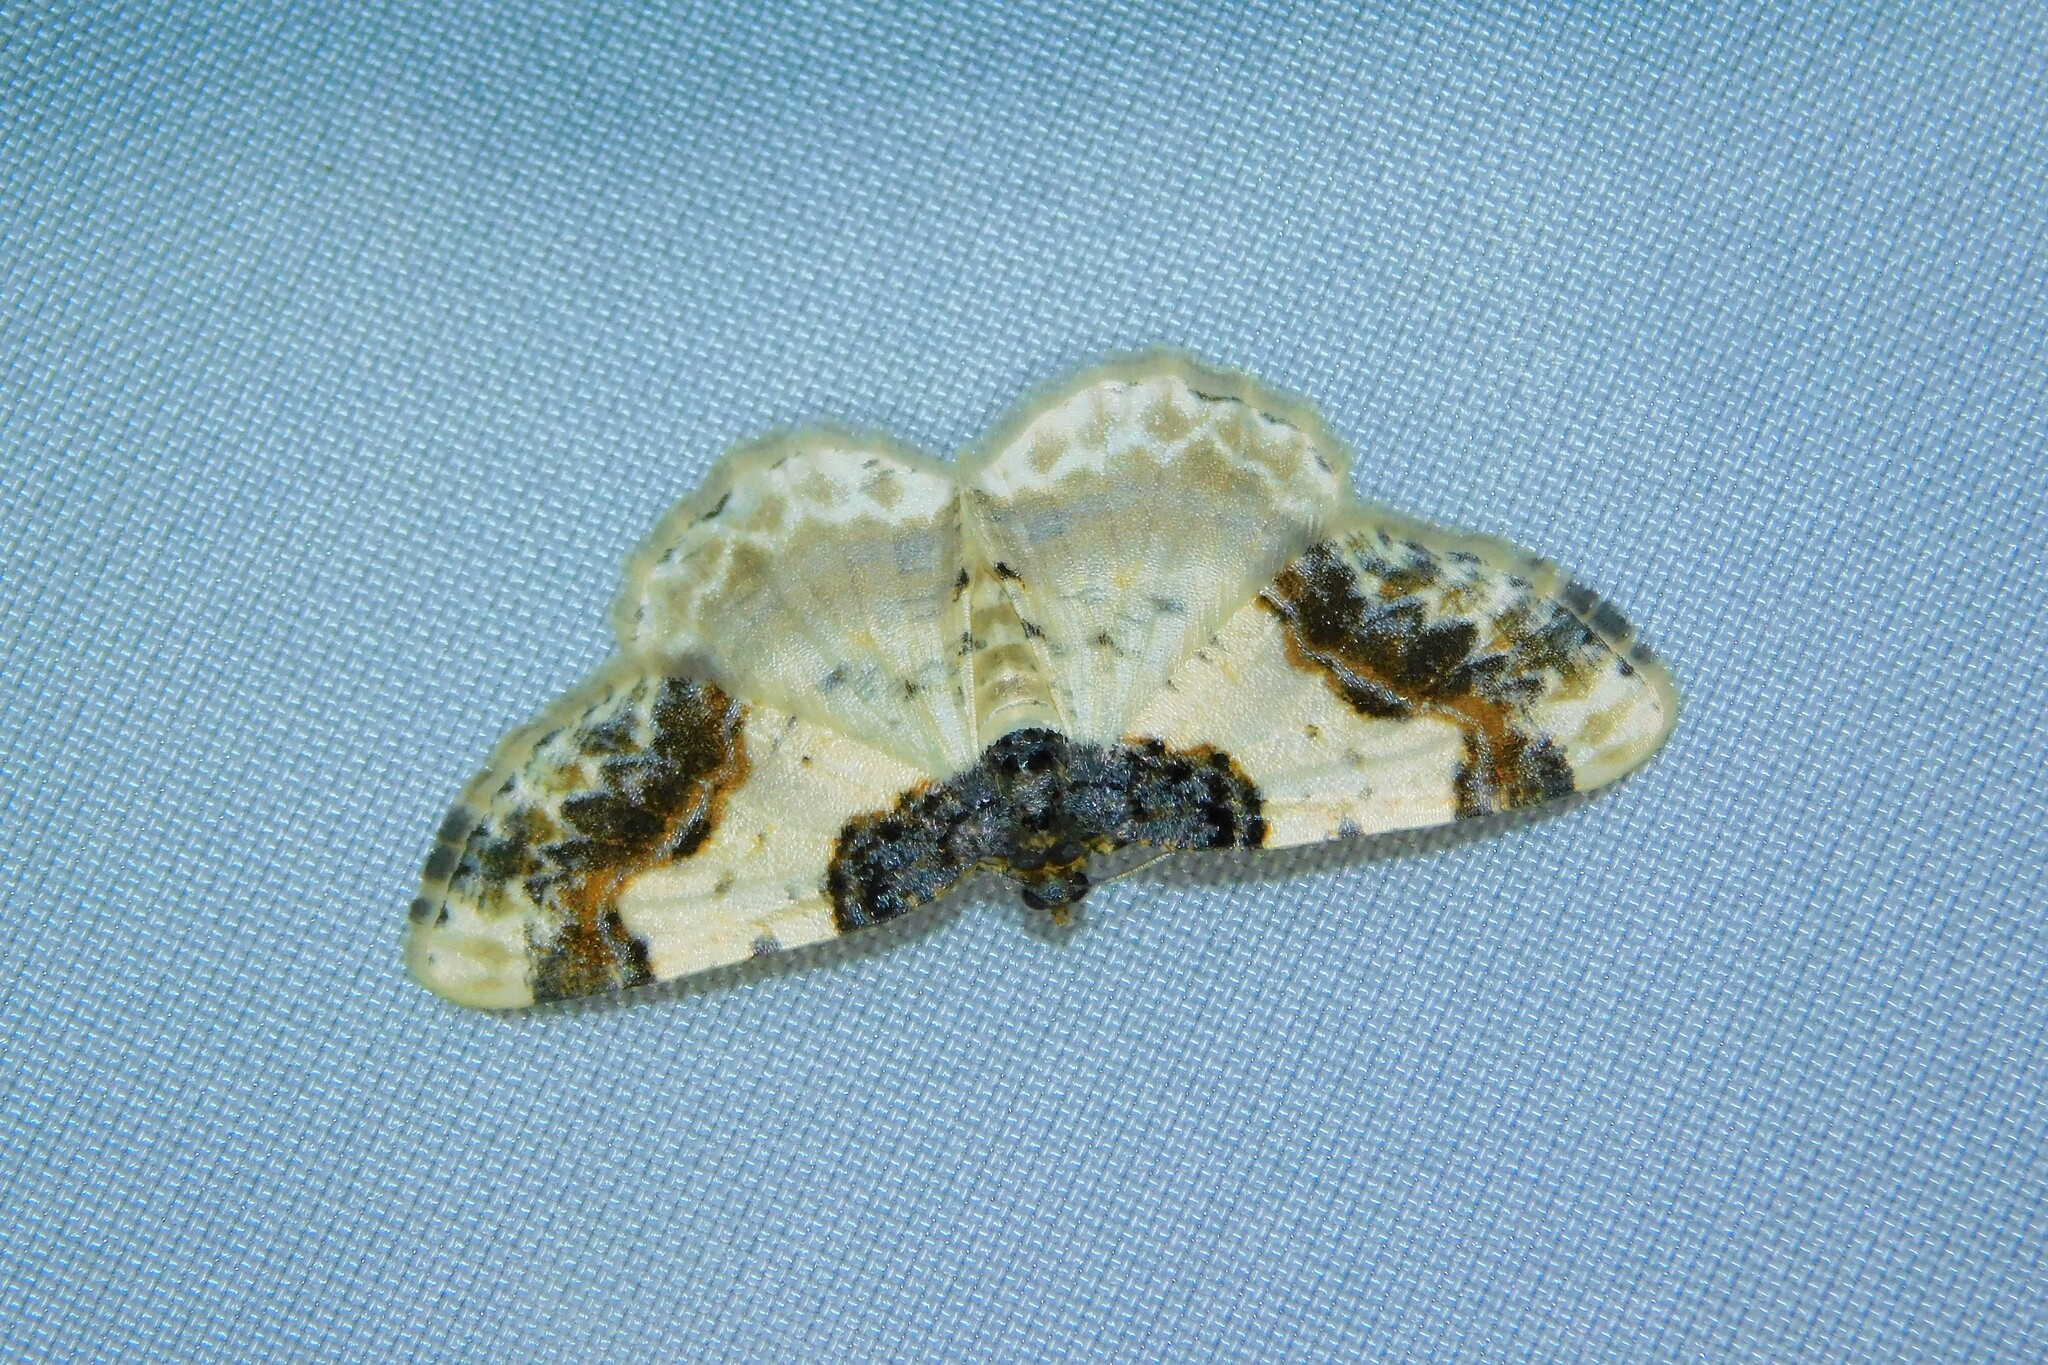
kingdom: Animalia
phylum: Arthropoda
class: Insecta
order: Lepidoptera
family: Geometridae
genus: Ligdia
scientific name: Ligdia adustata
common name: Scorched carpet
